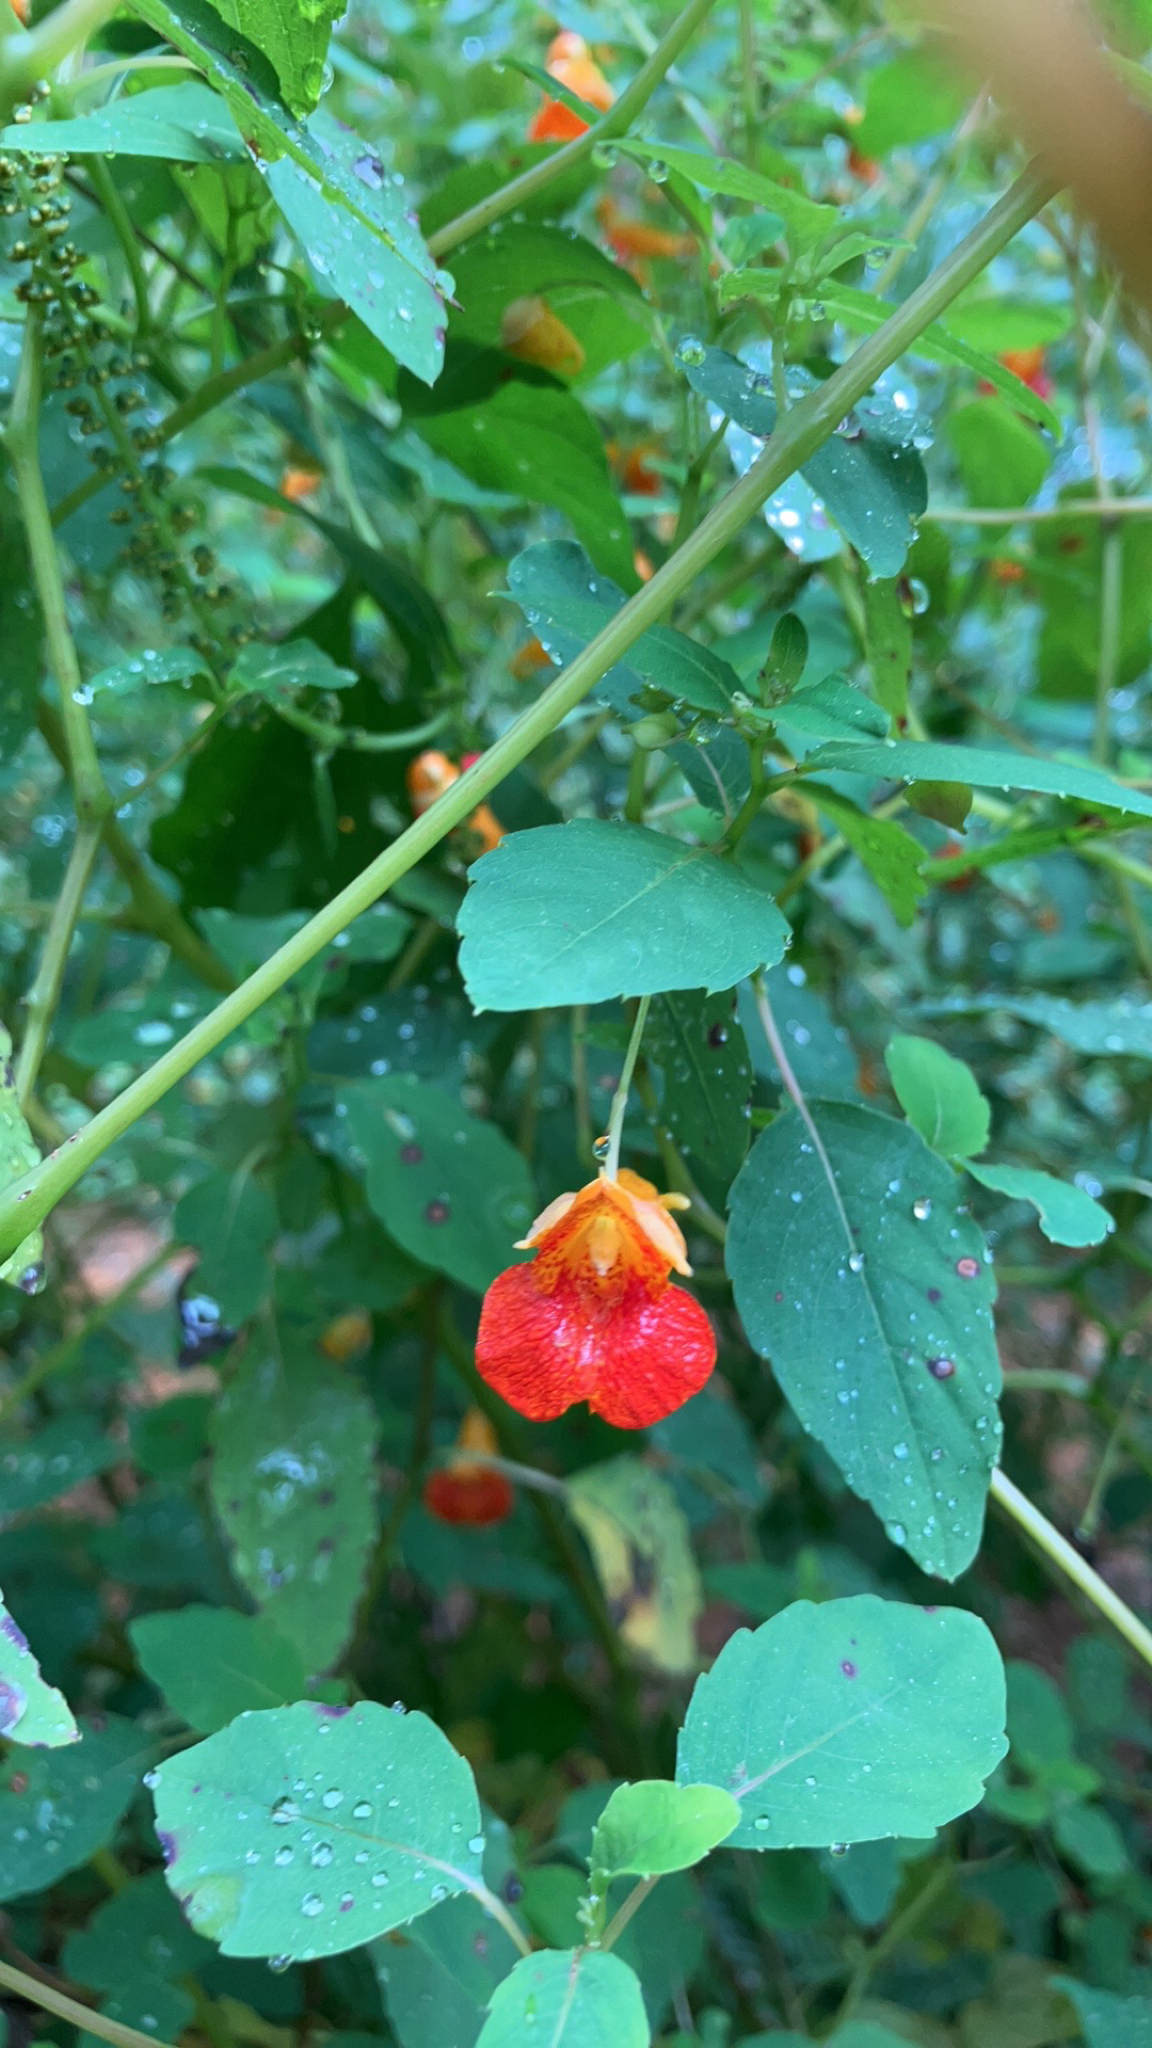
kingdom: Plantae
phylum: Tracheophyta
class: Magnoliopsida
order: Ericales
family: Balsaminaceae
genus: Impatiens
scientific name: Impatiens capensis
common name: Orange balsam
